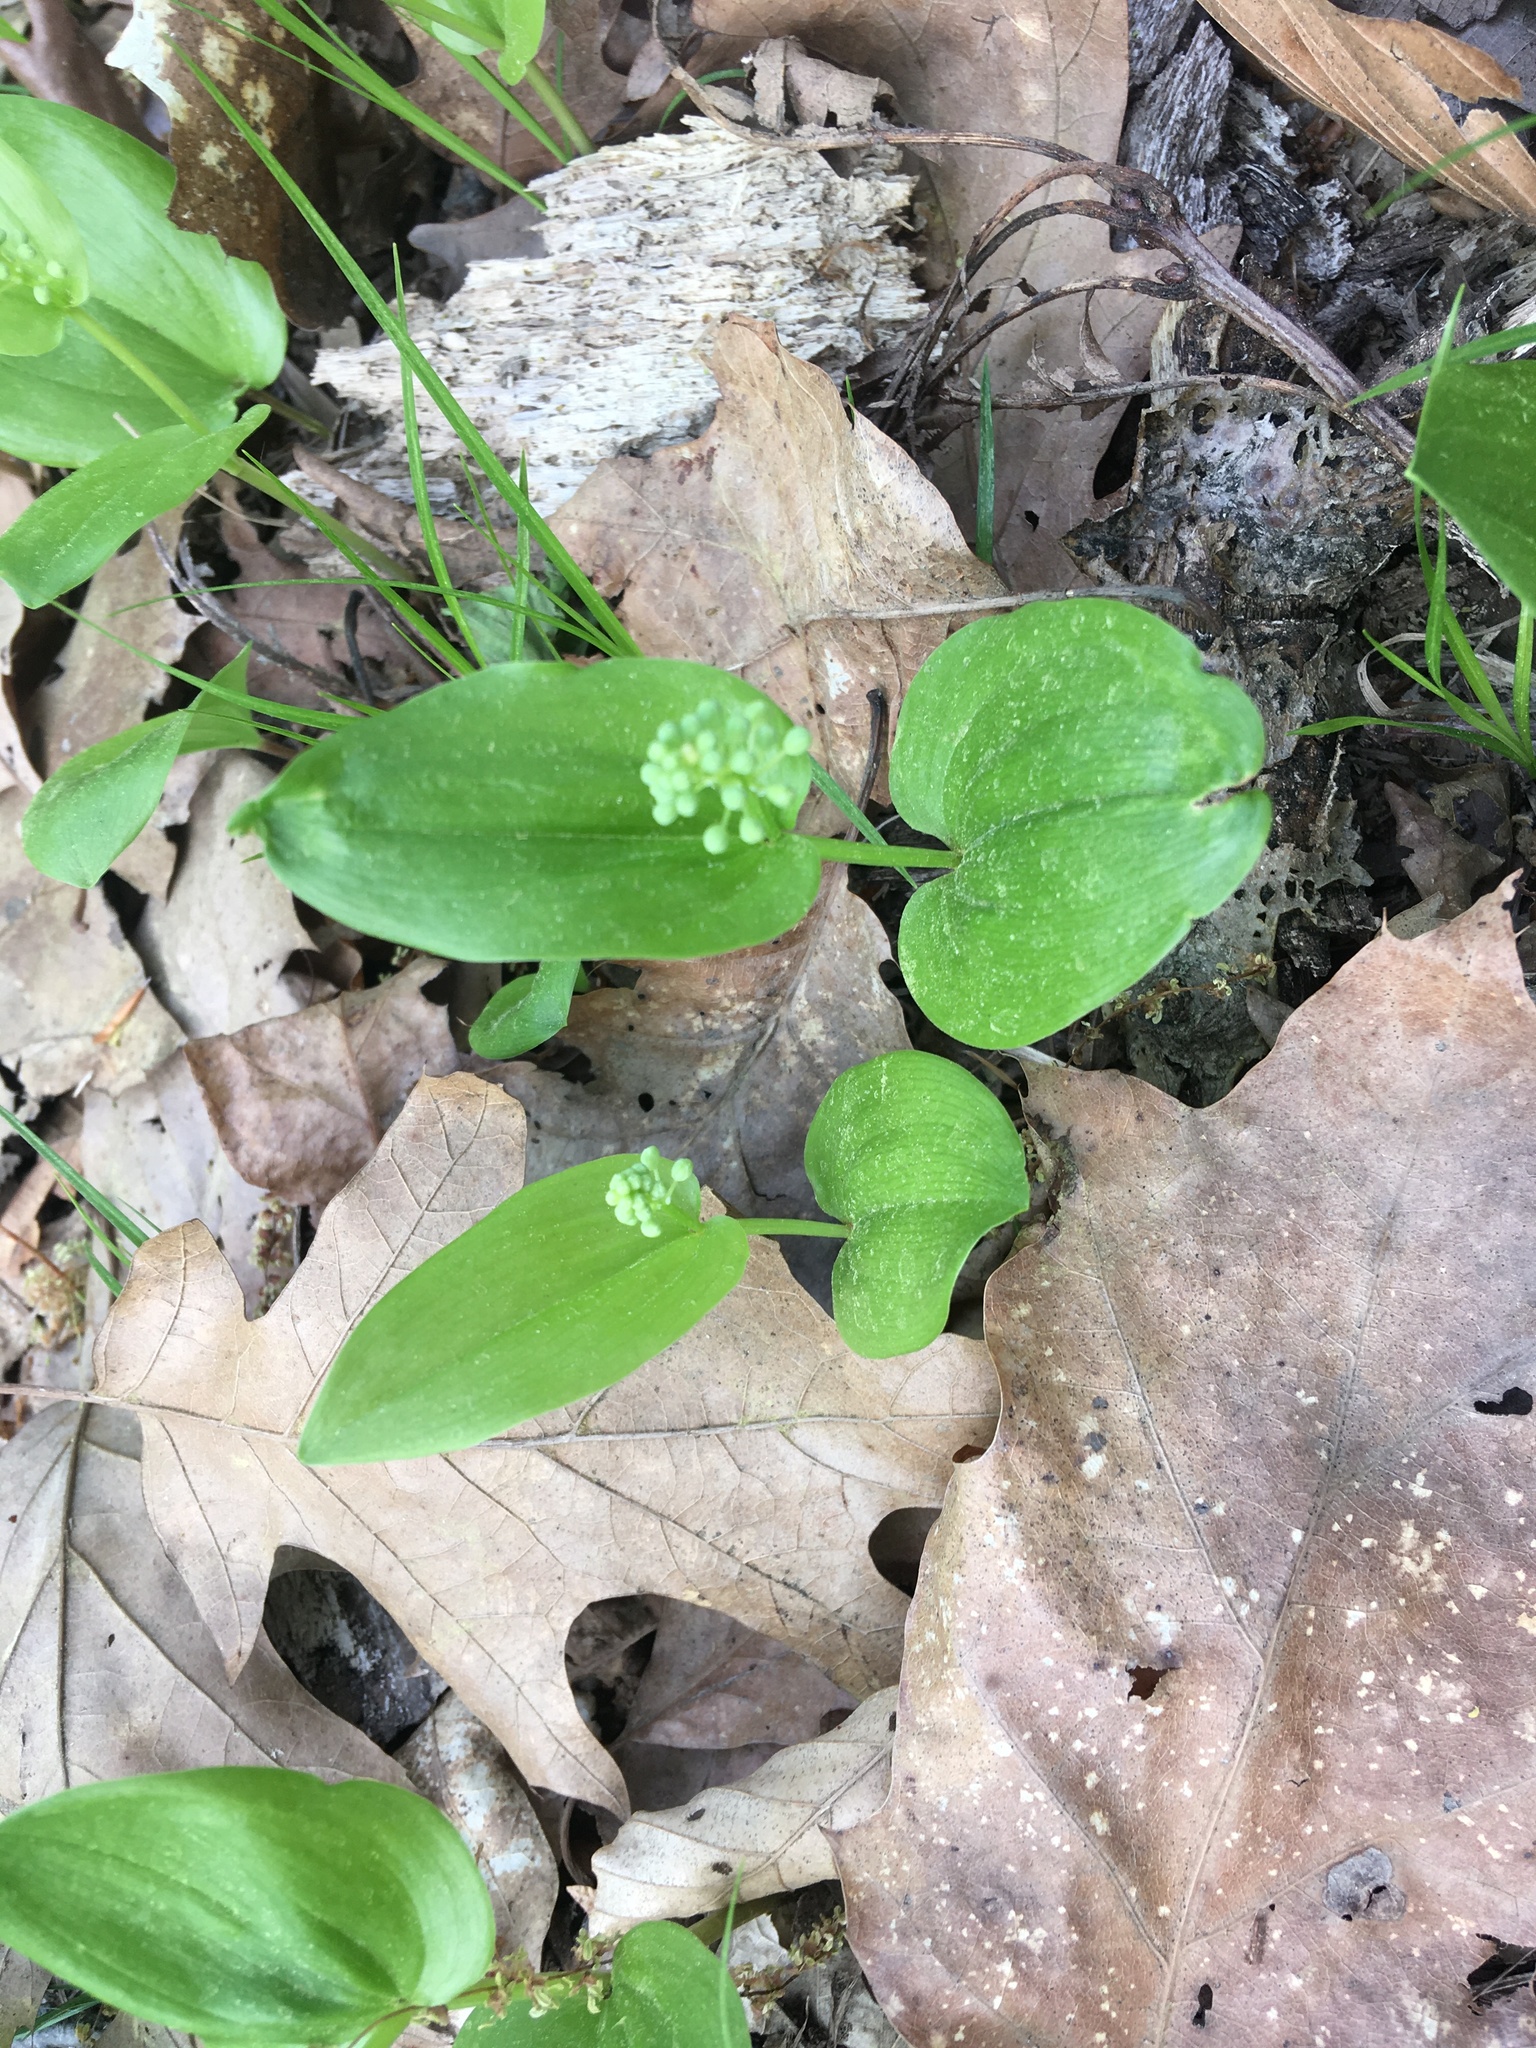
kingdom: Plantae
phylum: Tracheophyta
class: Liliopsida
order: Asparagales
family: Asparagaceae
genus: Maianthemum
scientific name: Maianthemum canadense
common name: False lily-of-the-valley
